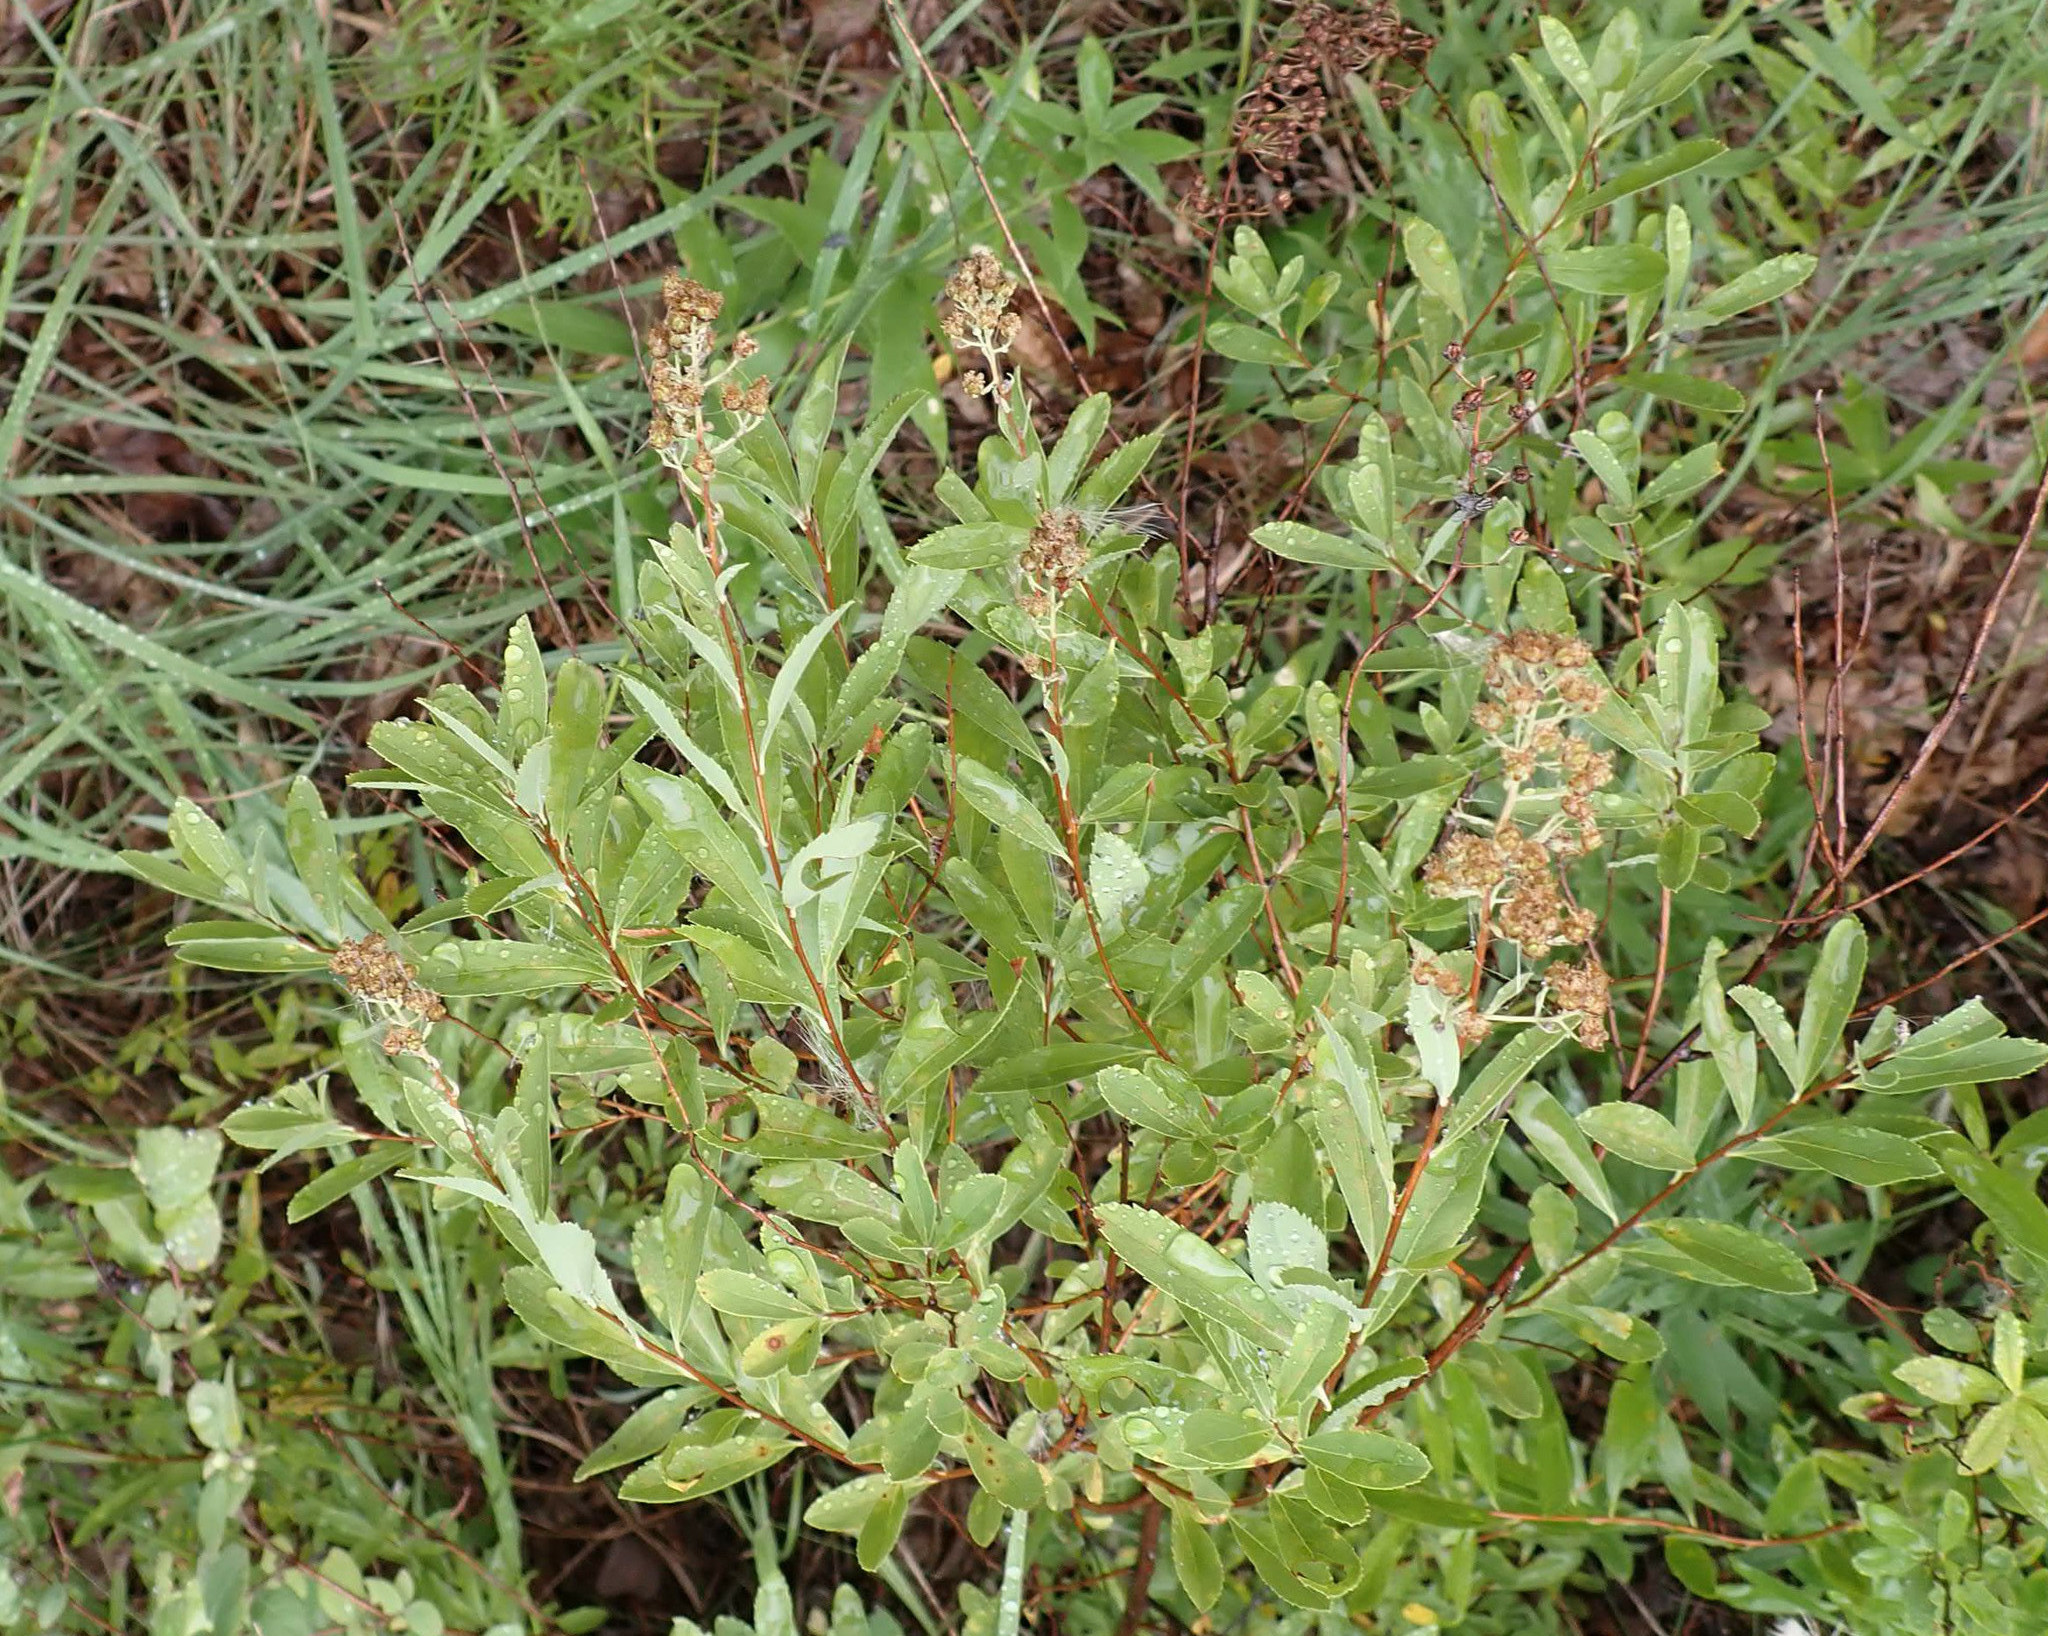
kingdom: Plantae
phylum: Tracheophyta
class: Magnoliopsida
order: Rosales
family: Rosaceae
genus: Spiraea
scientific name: Spiraea alba
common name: Pale bridewort
